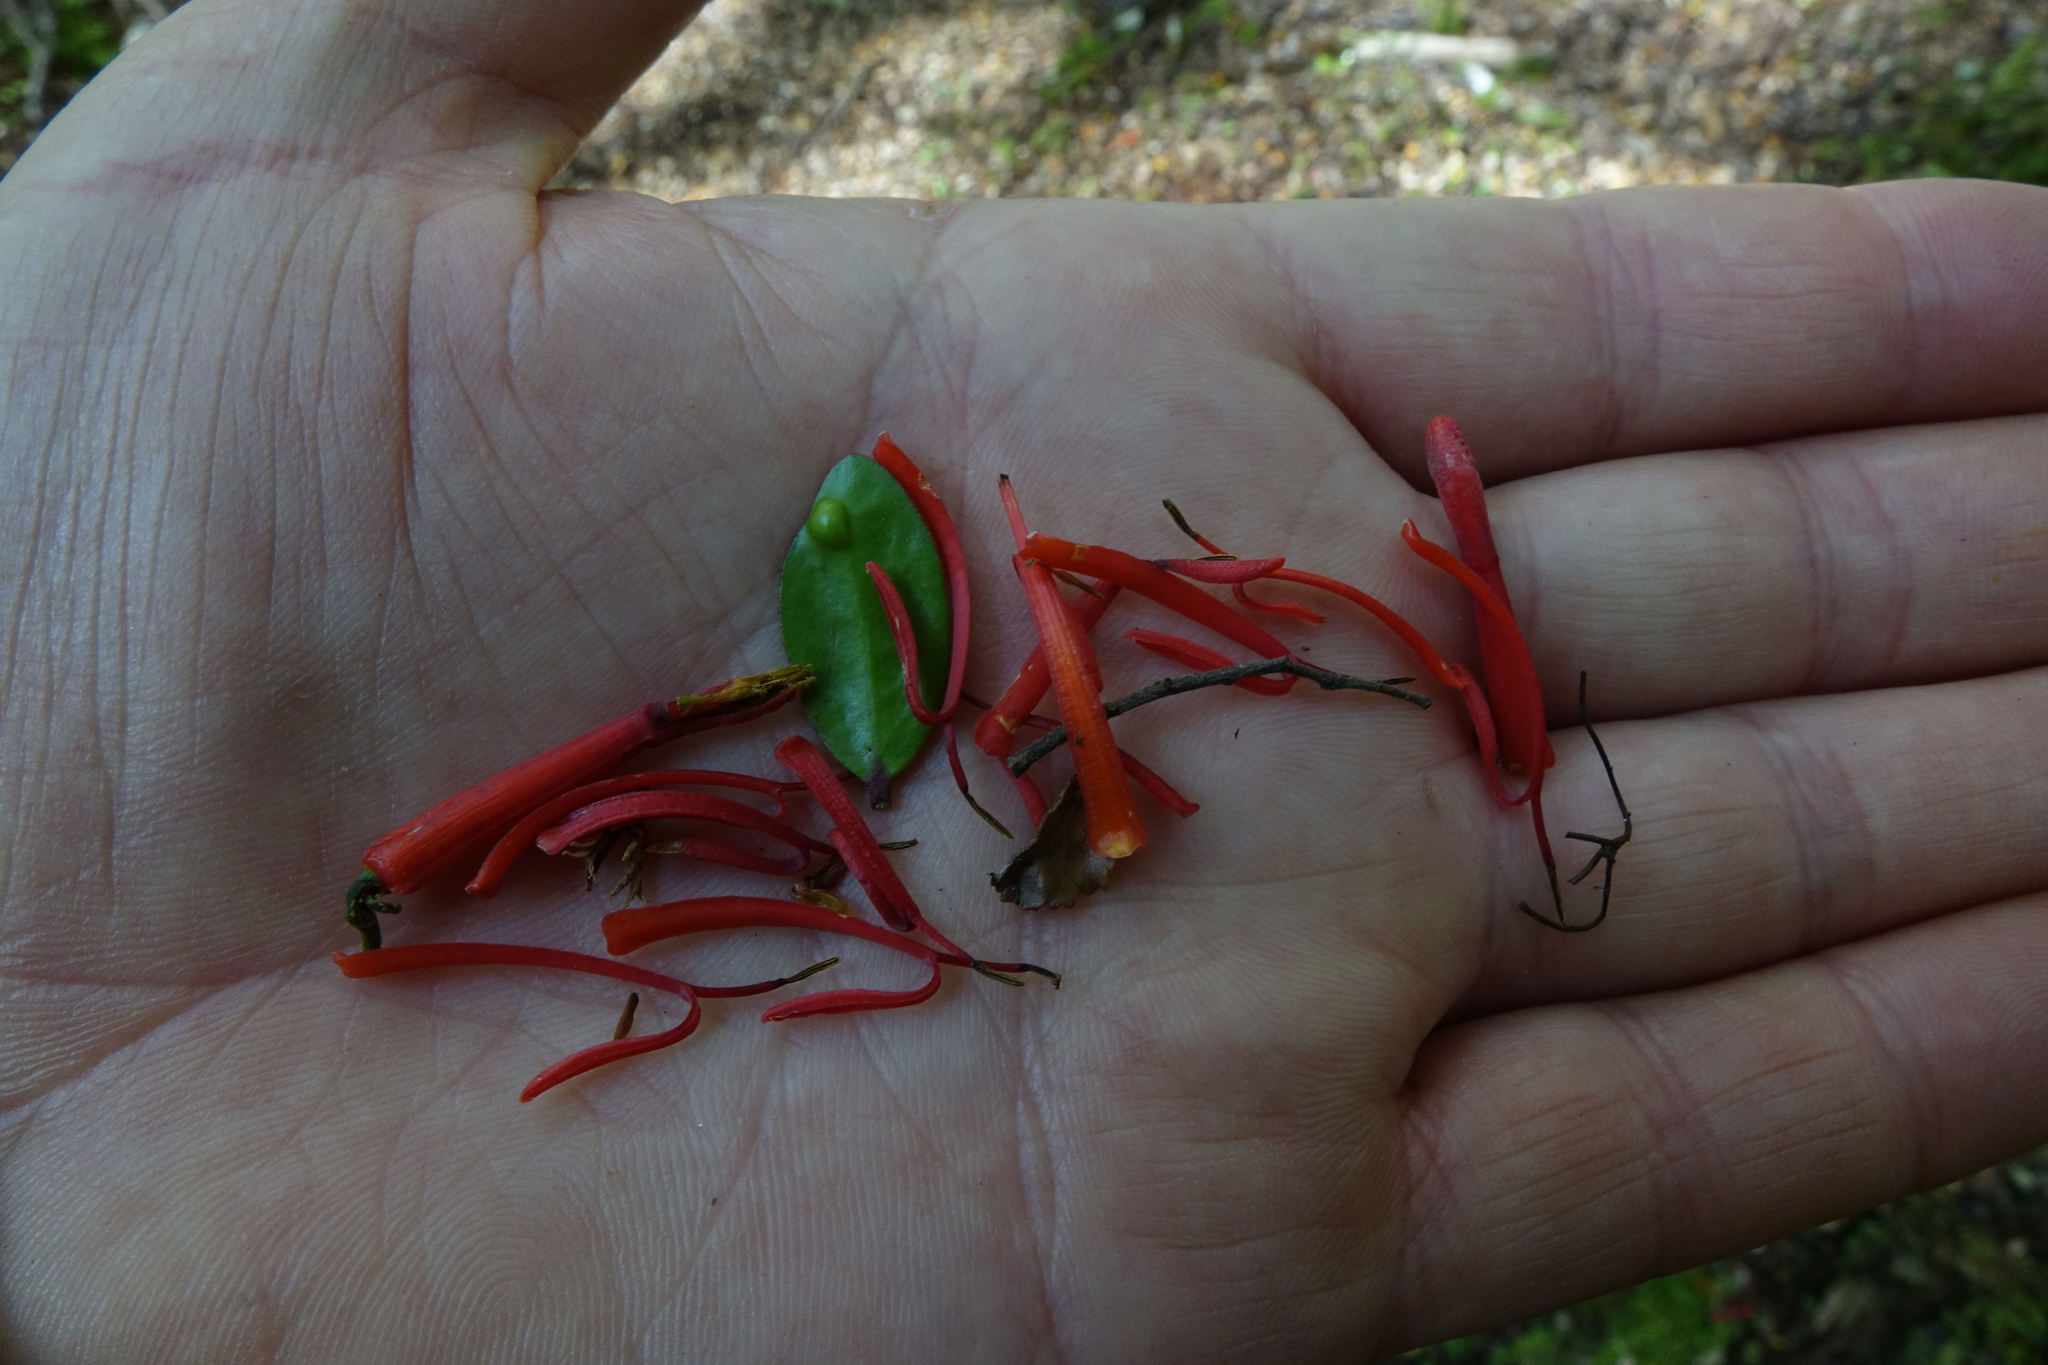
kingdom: Plantae
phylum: Tracheophyta
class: Magnoliopsida
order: Santalales
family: Loranthaceae
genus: Peraxilla
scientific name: Peraxilla tetrapetala
